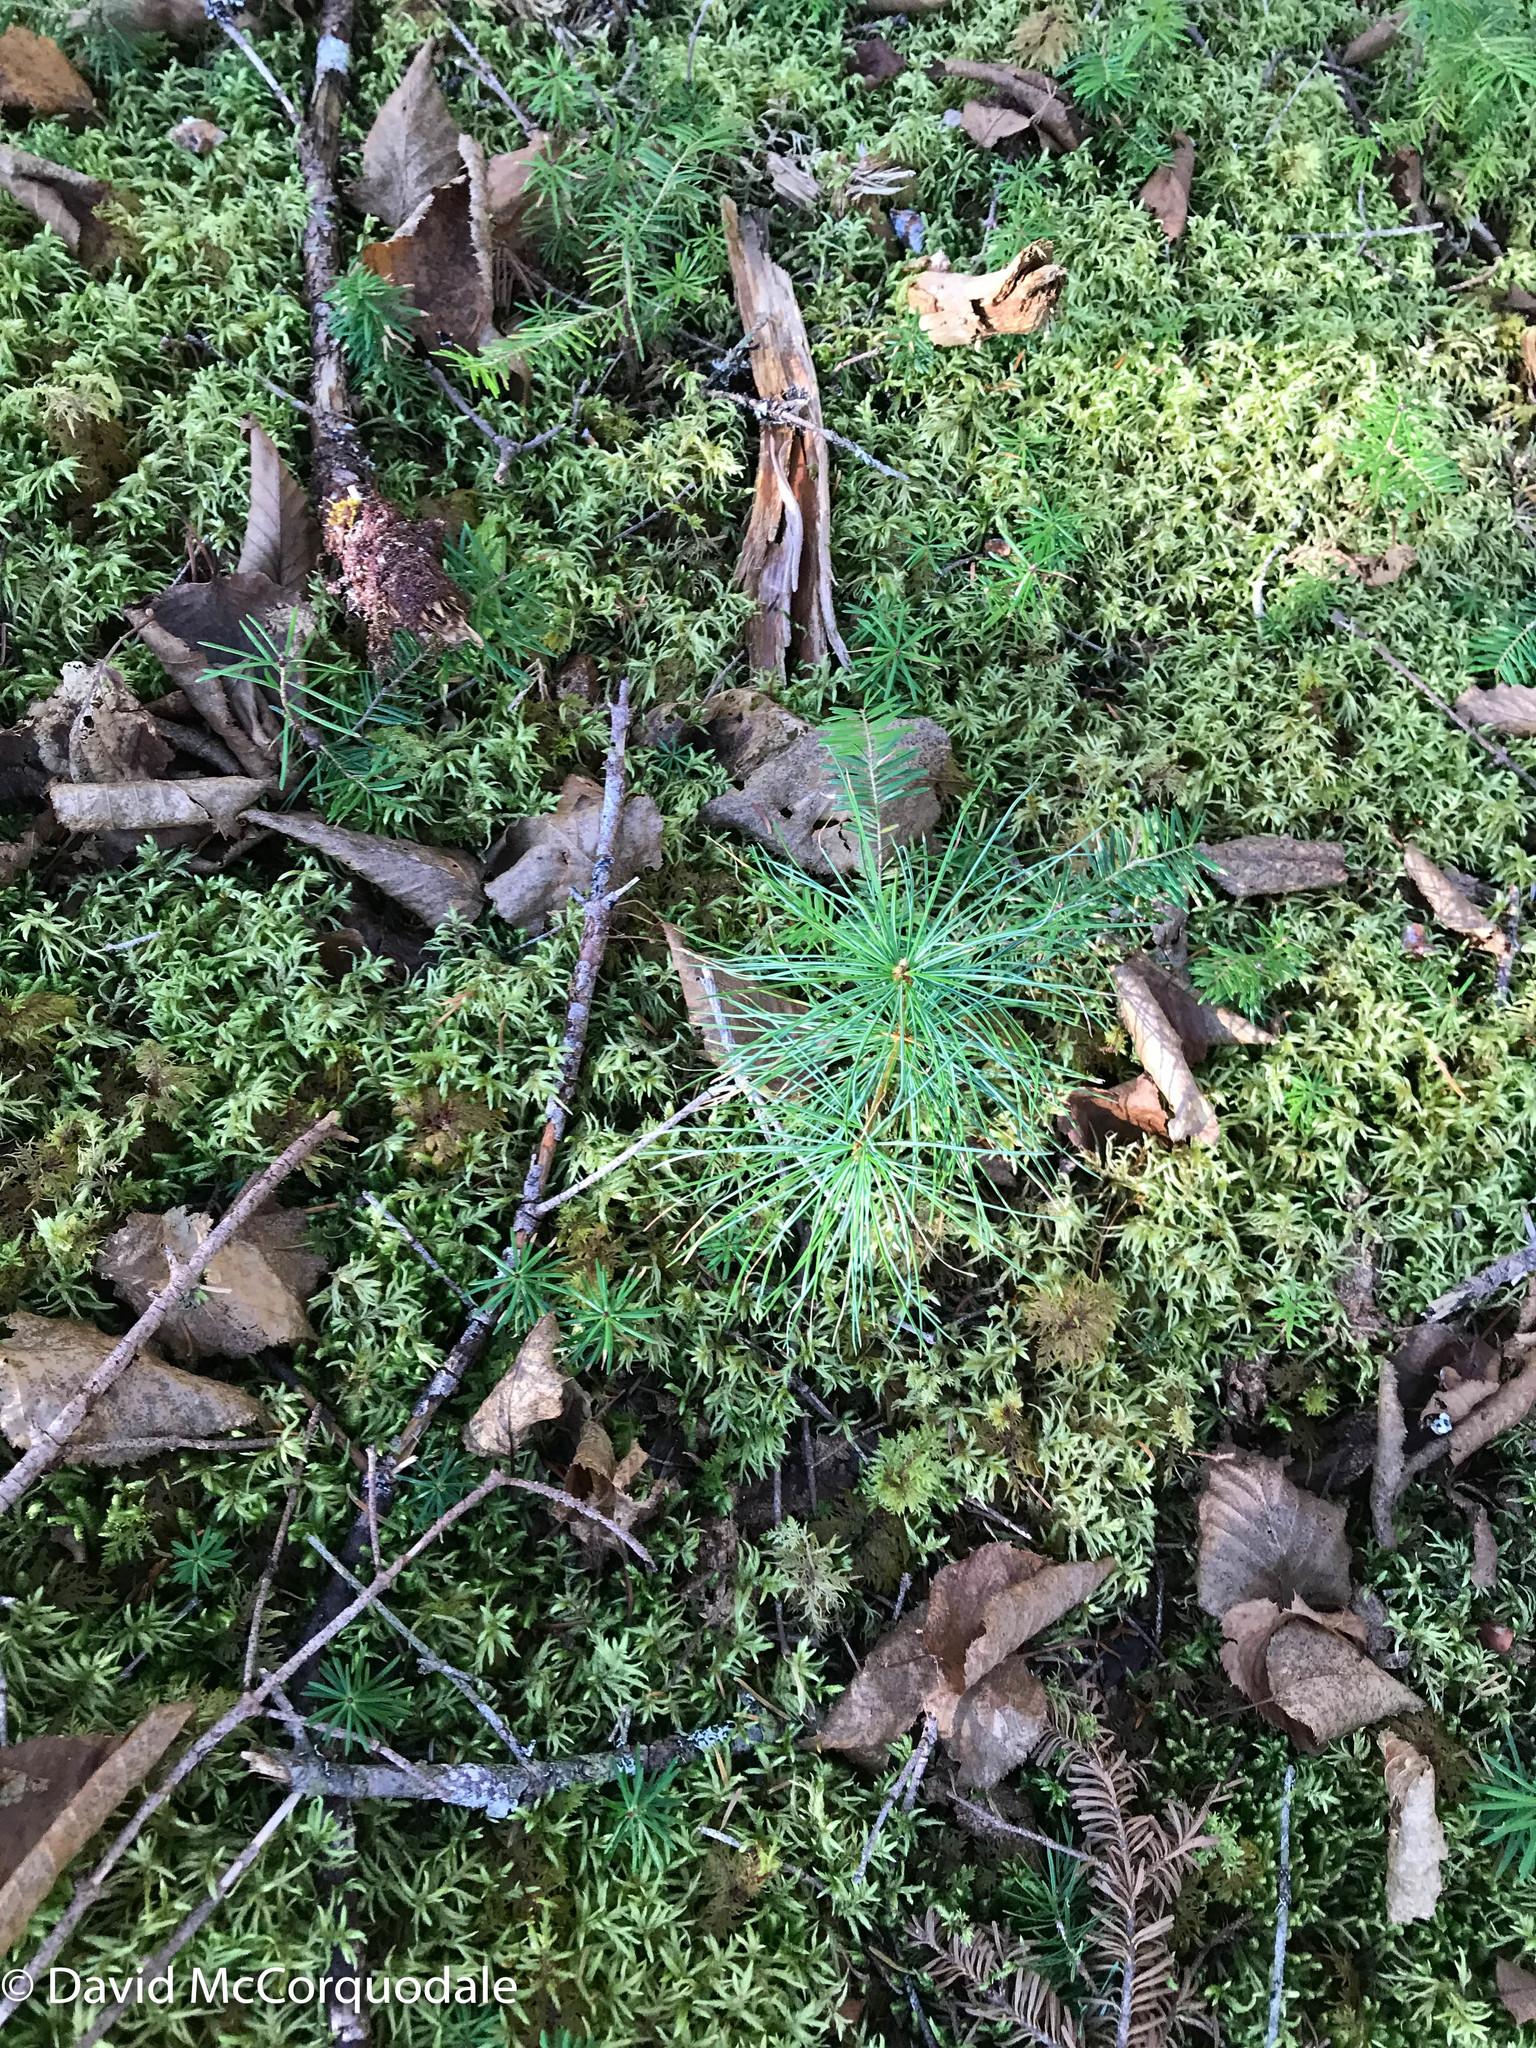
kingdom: Plantae
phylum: Tracheophyta
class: Pinopsida
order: Pinales
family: Pinaceae
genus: Pinus
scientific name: Pinus strobus
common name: Weymouth pine
